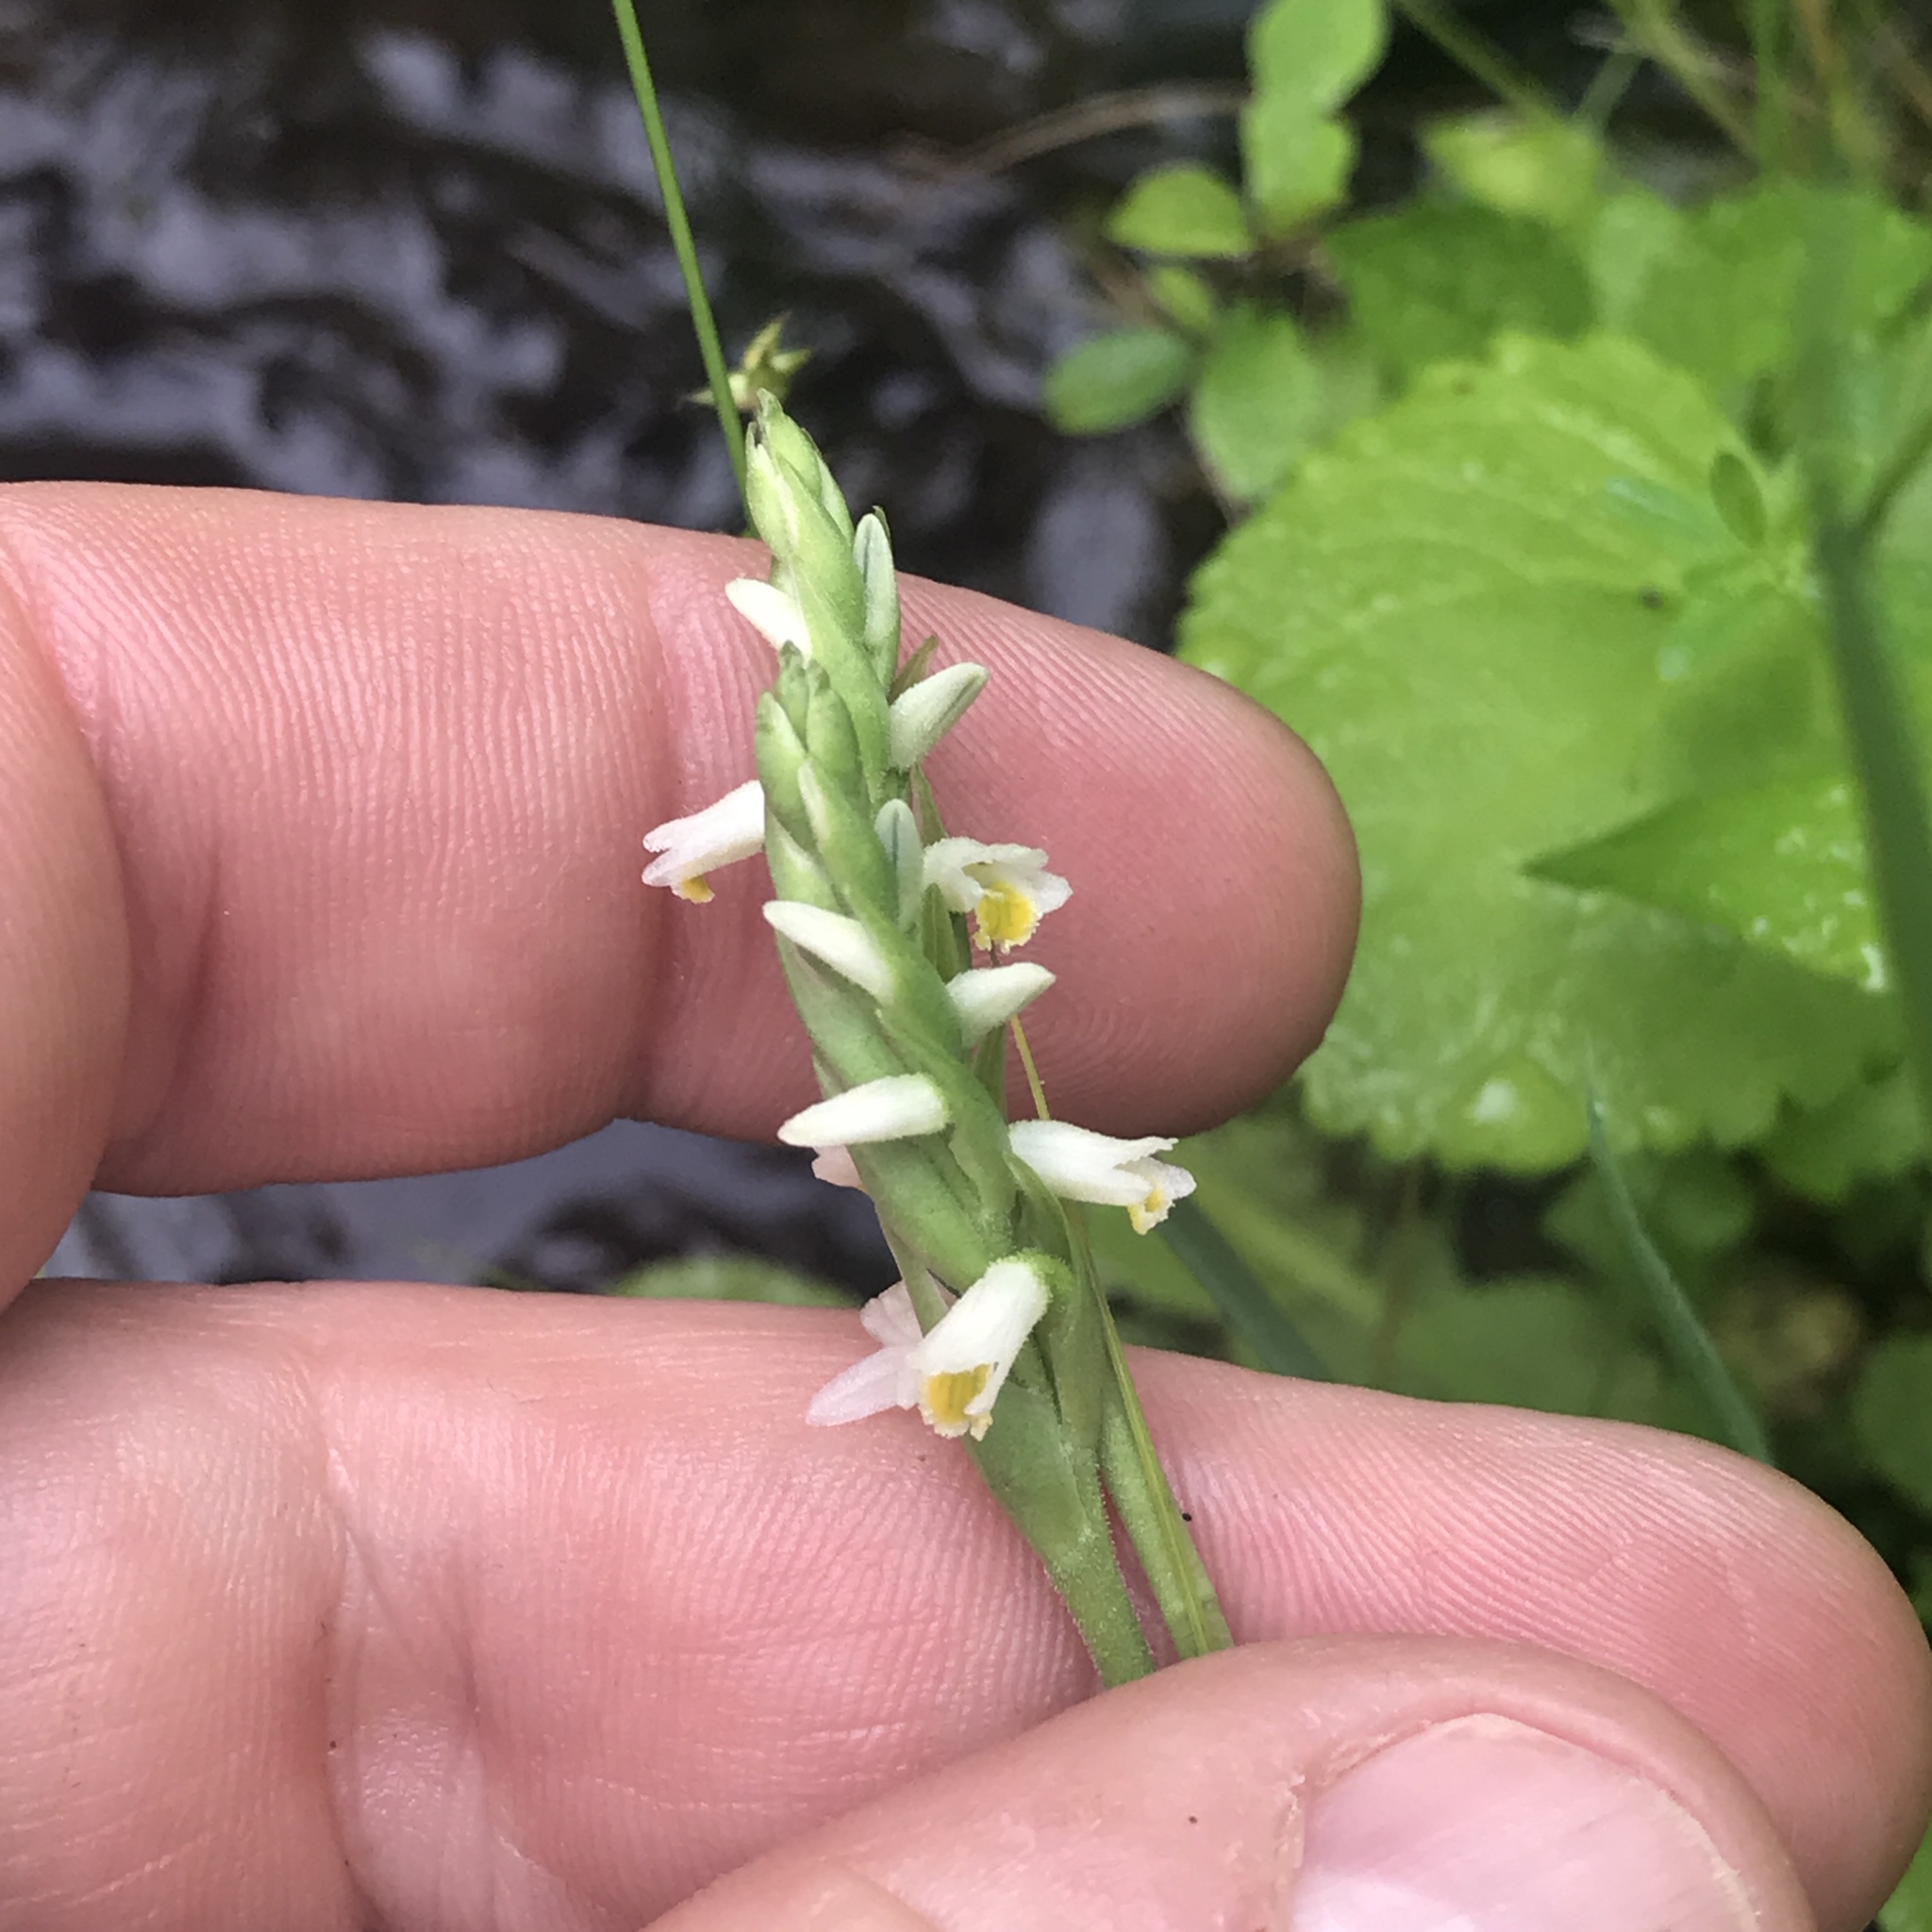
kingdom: Plantae
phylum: Tracheophyta
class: Liliopsida
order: Asparagales
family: Orchidaceae
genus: Spiranthes
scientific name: Spiranthes lucida
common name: Broad-leaved ladies'-tresses
